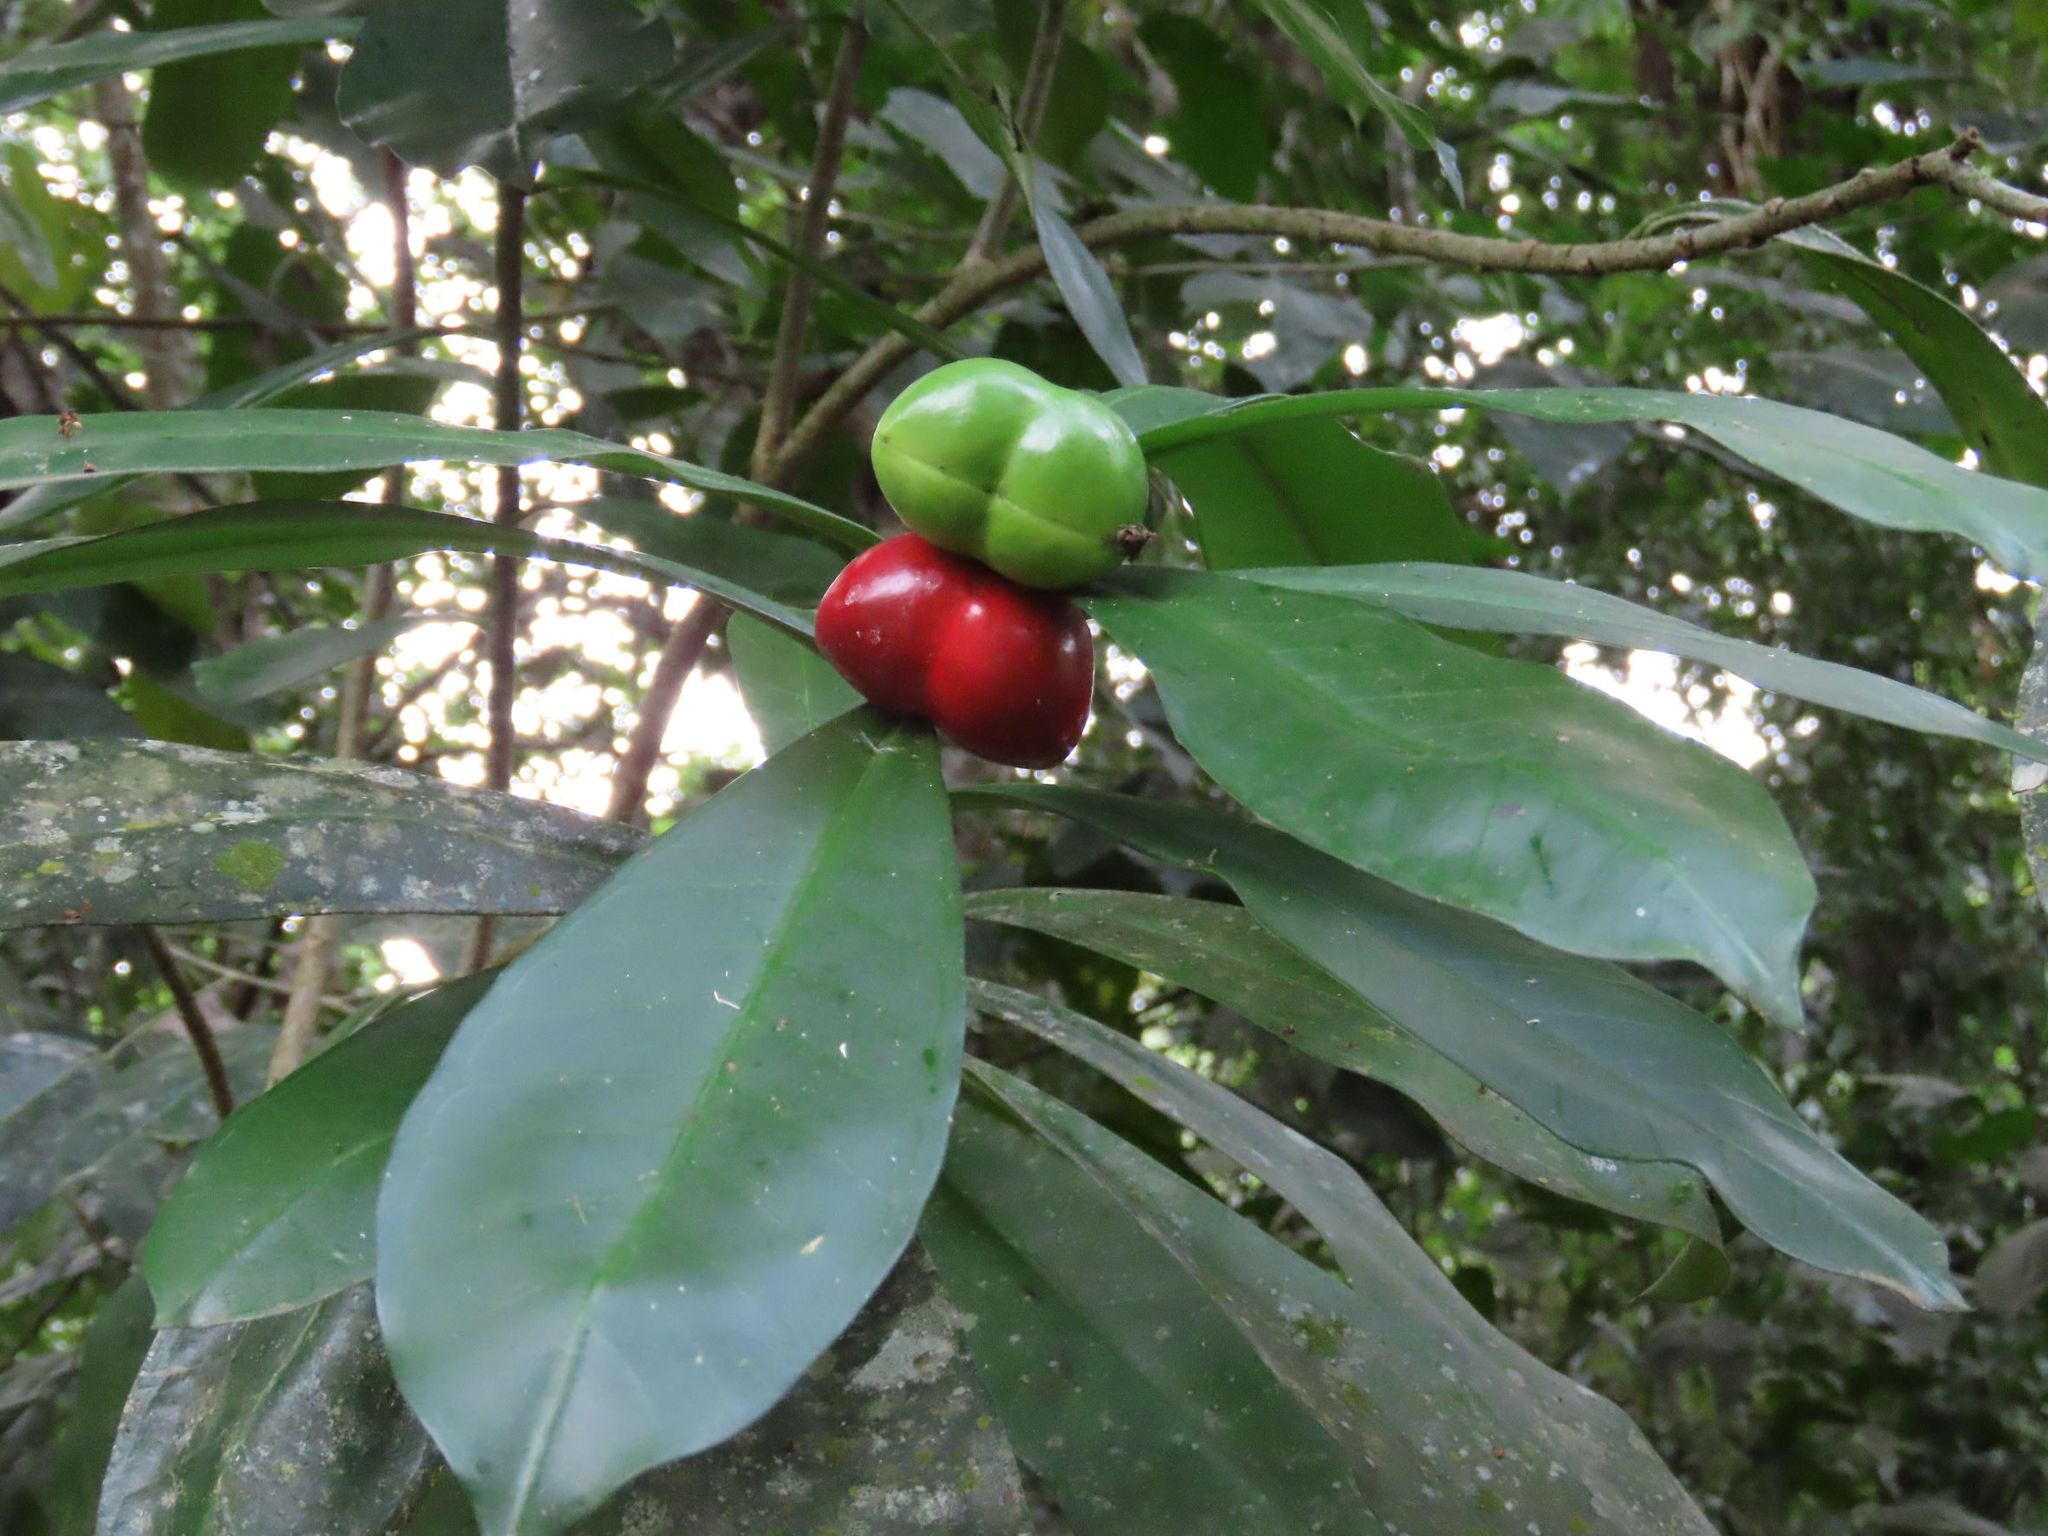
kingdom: Plantae
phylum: Tracheophyta
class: Magnoliopsida
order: Gentianales
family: Apocynaceae
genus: Thevetia
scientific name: Thevetia ahouai
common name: Broadleaf thevetia
